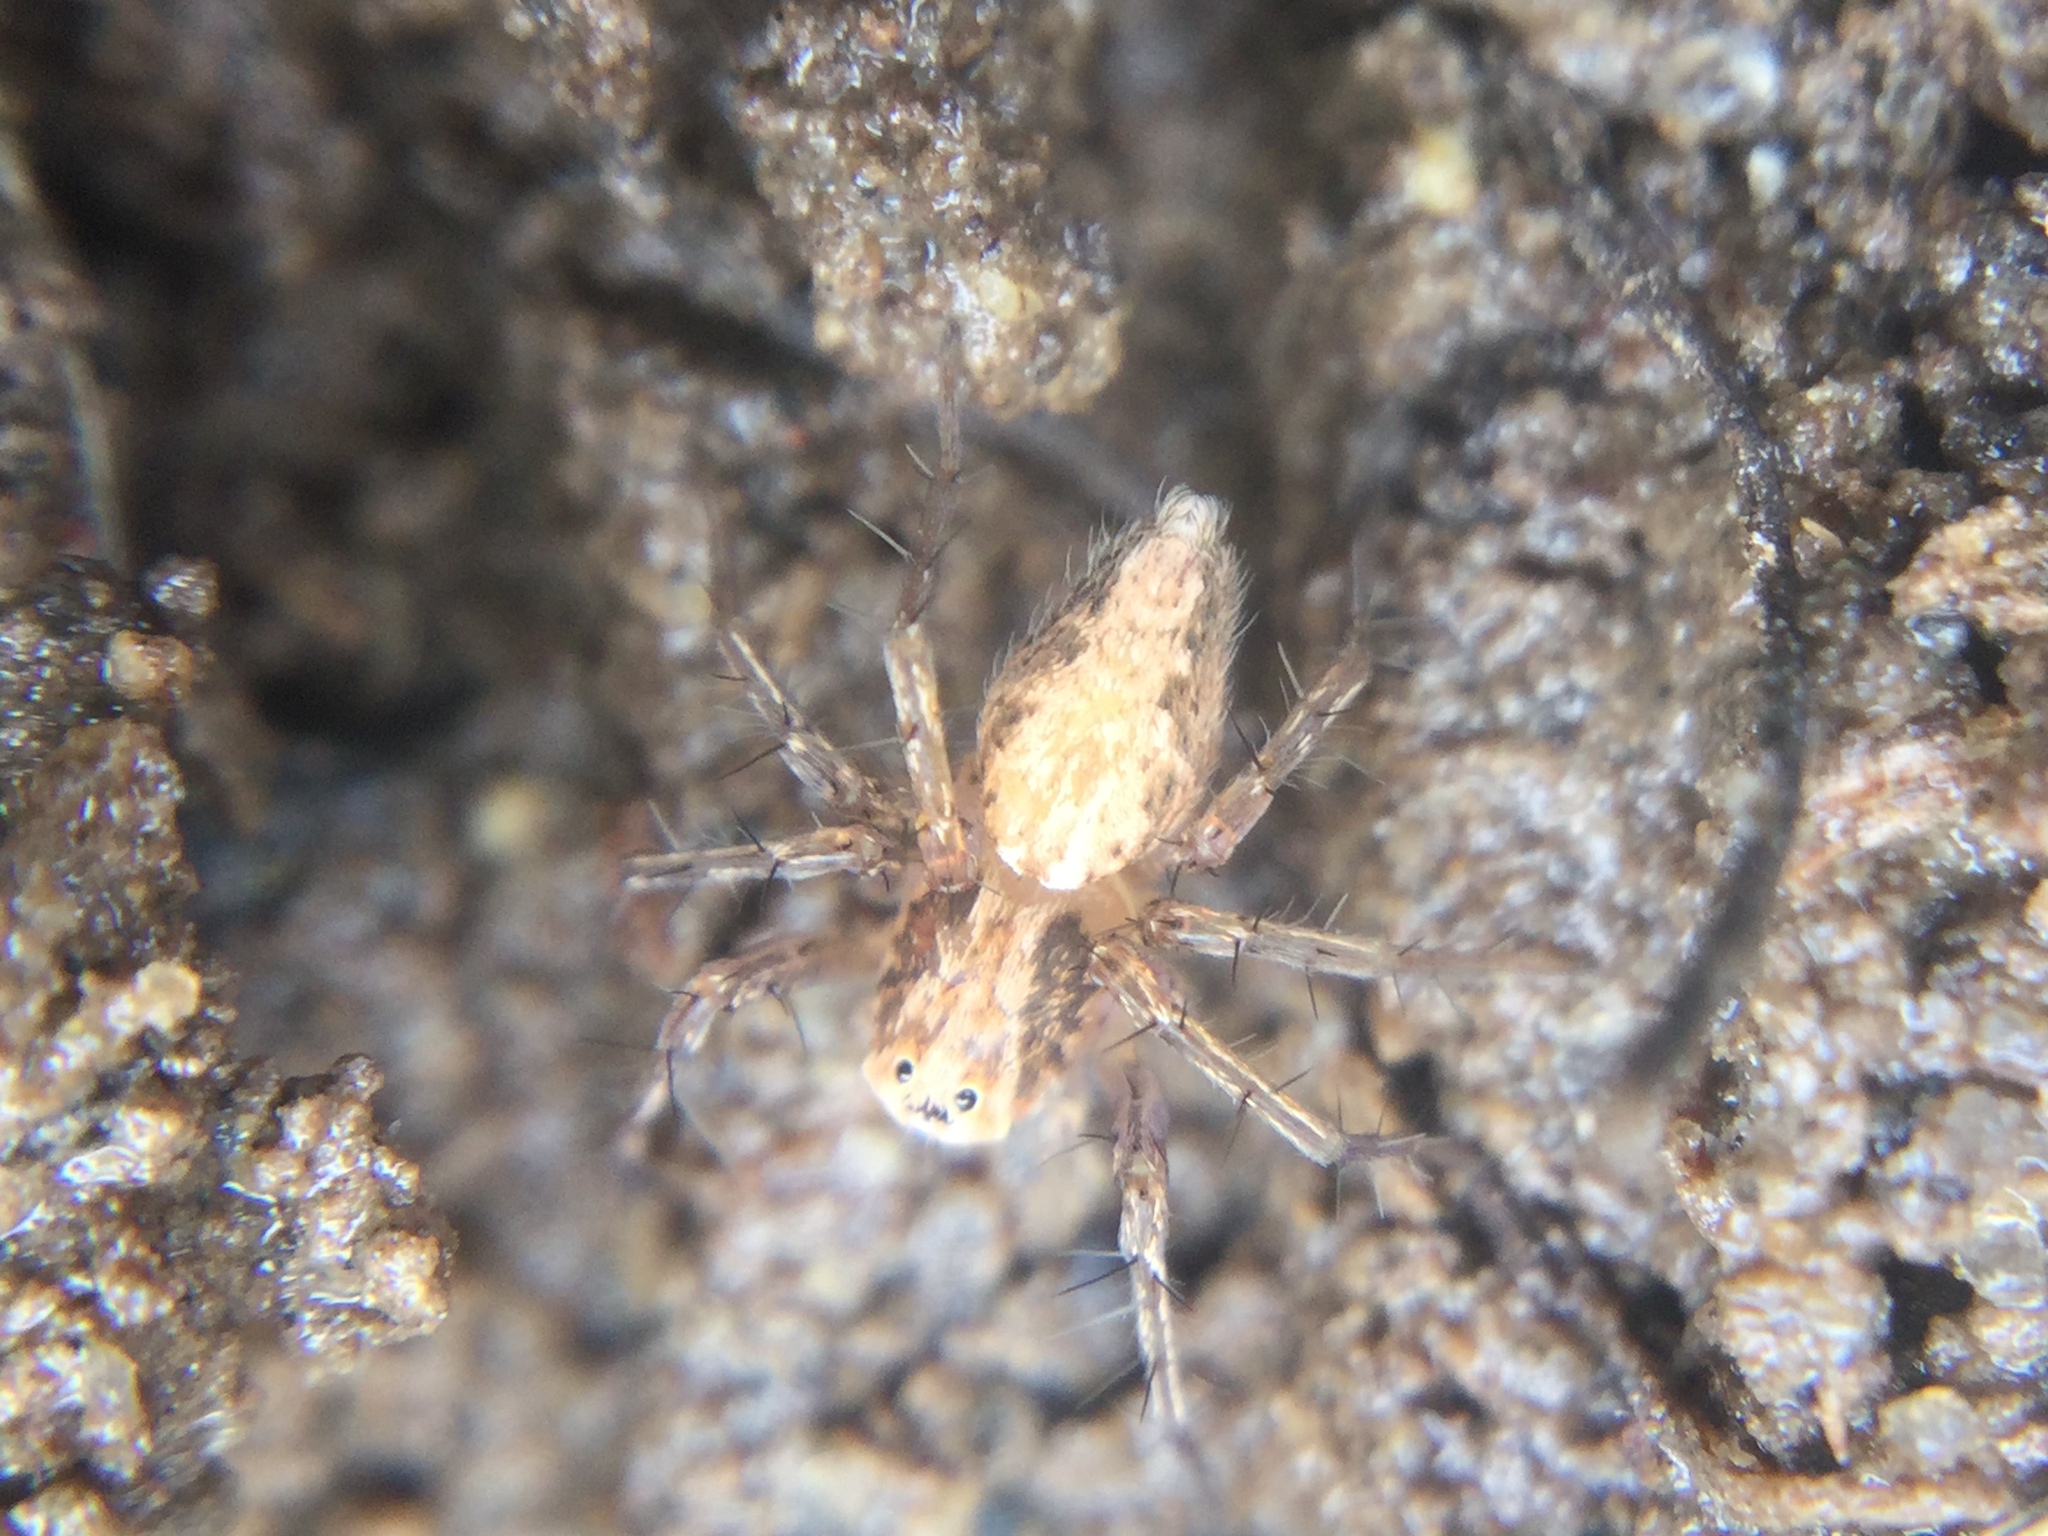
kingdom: Animalia
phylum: Arthropoda
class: Arachnida
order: Araneae
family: Oxyopidae
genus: Oxyopes
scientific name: Oxyopes aglossus
